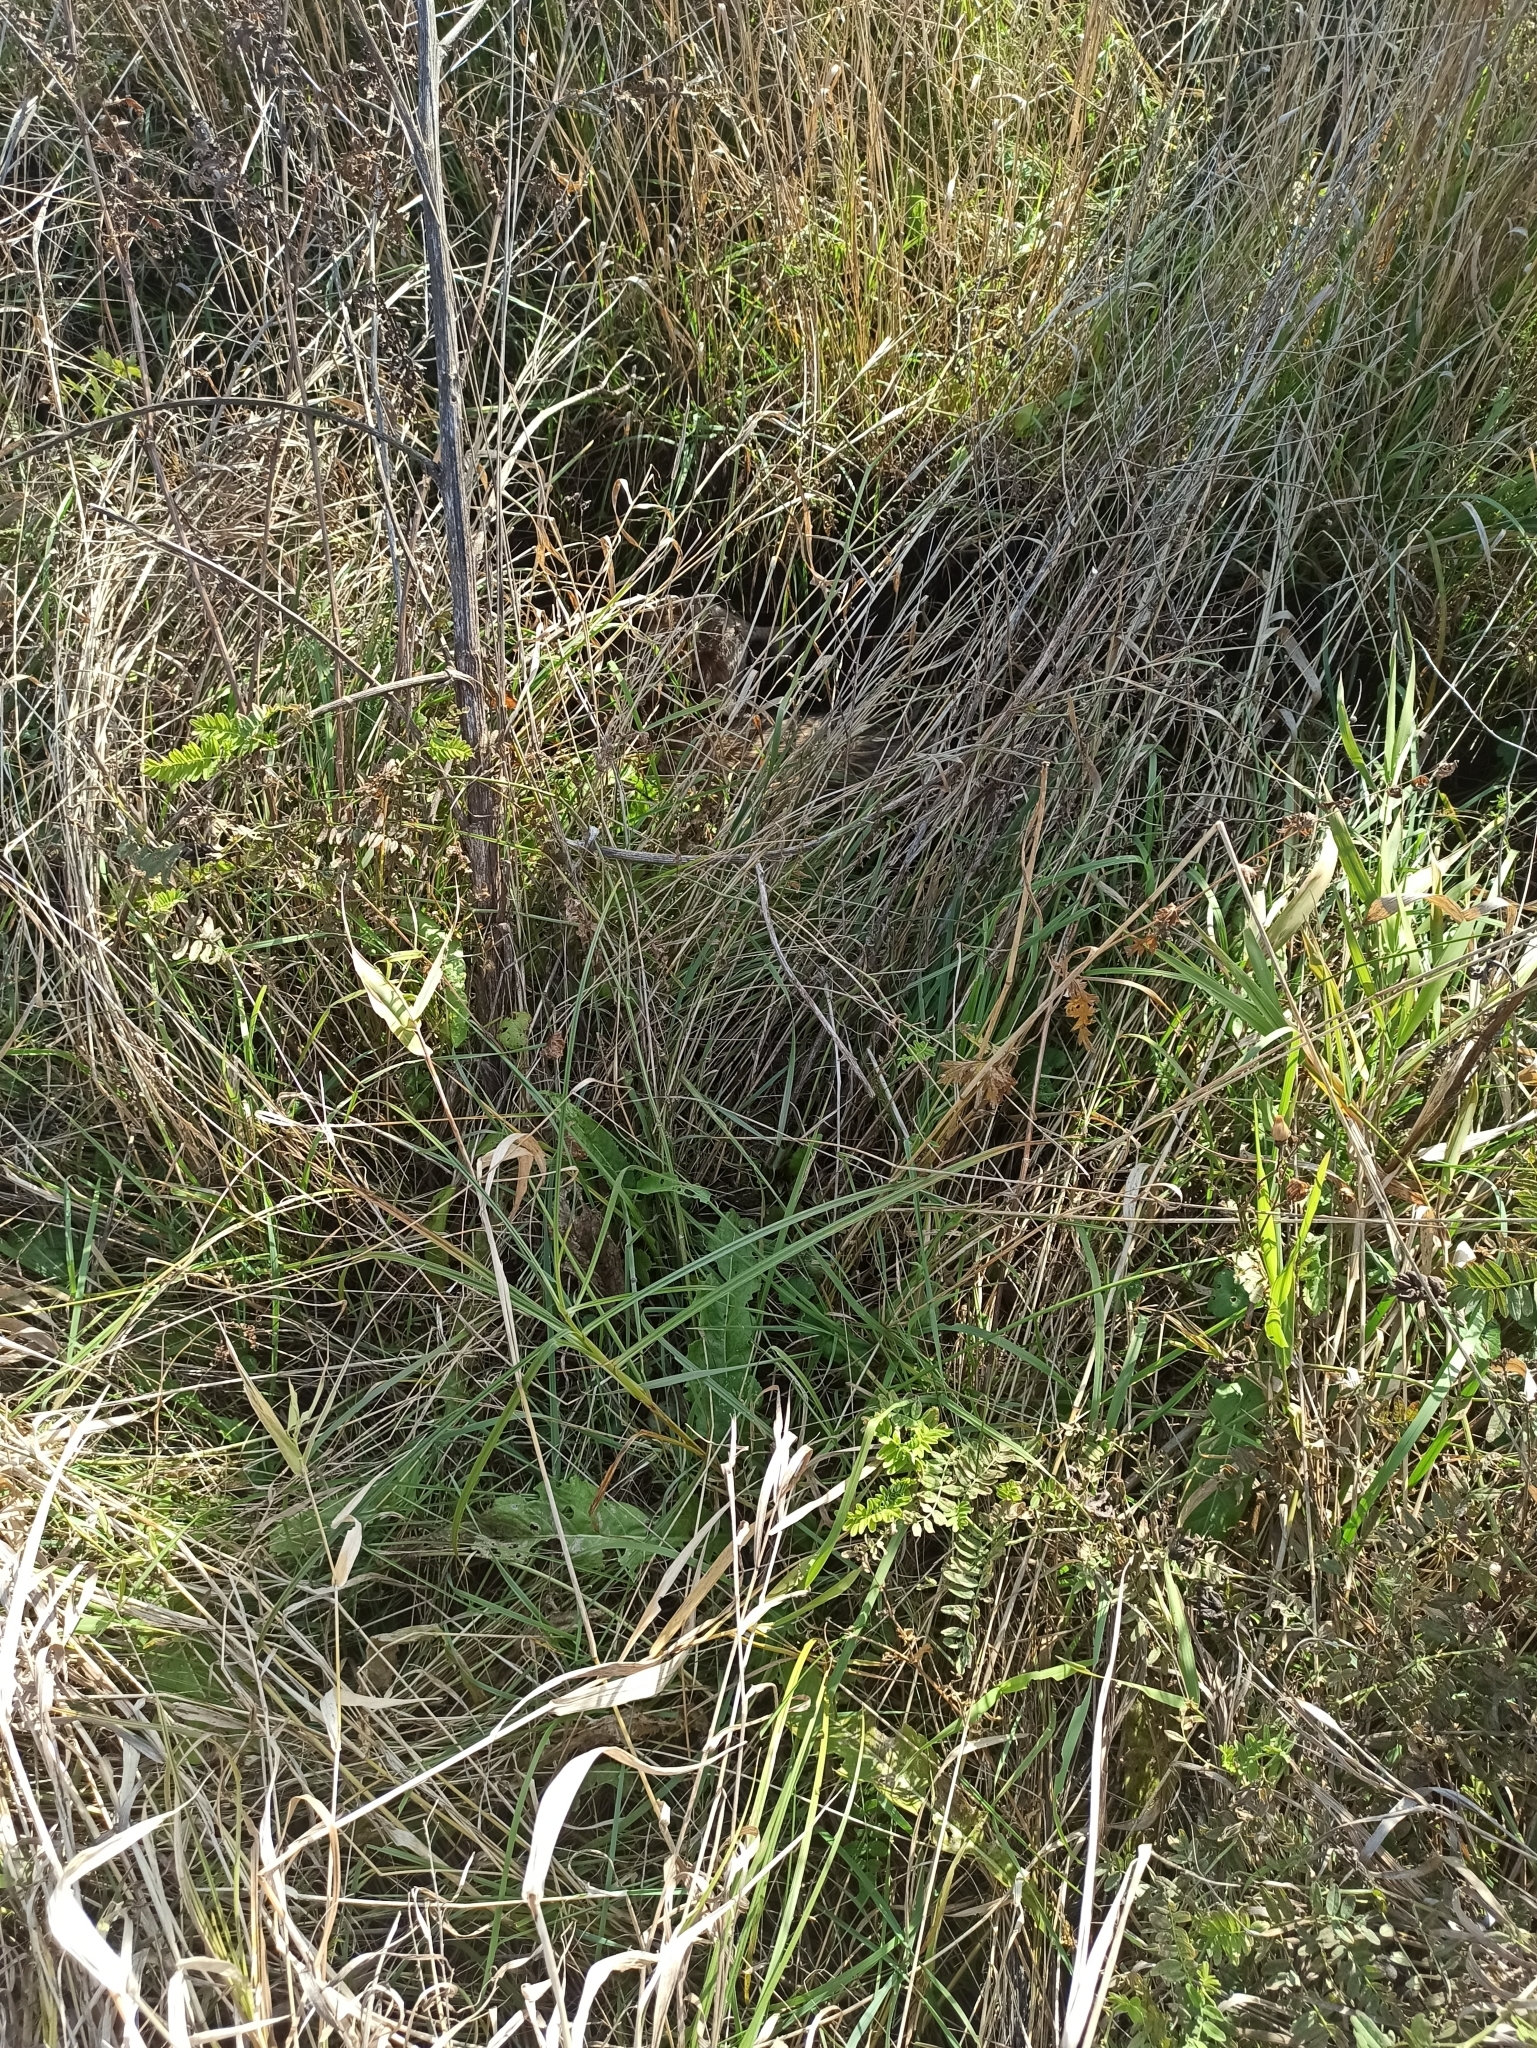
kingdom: Animalia
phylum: Chordata
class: Mammalia
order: Carnivora
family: Canidae
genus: Nyctereutes
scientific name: Nyctereutes procyonoides
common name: Raccoon dog
